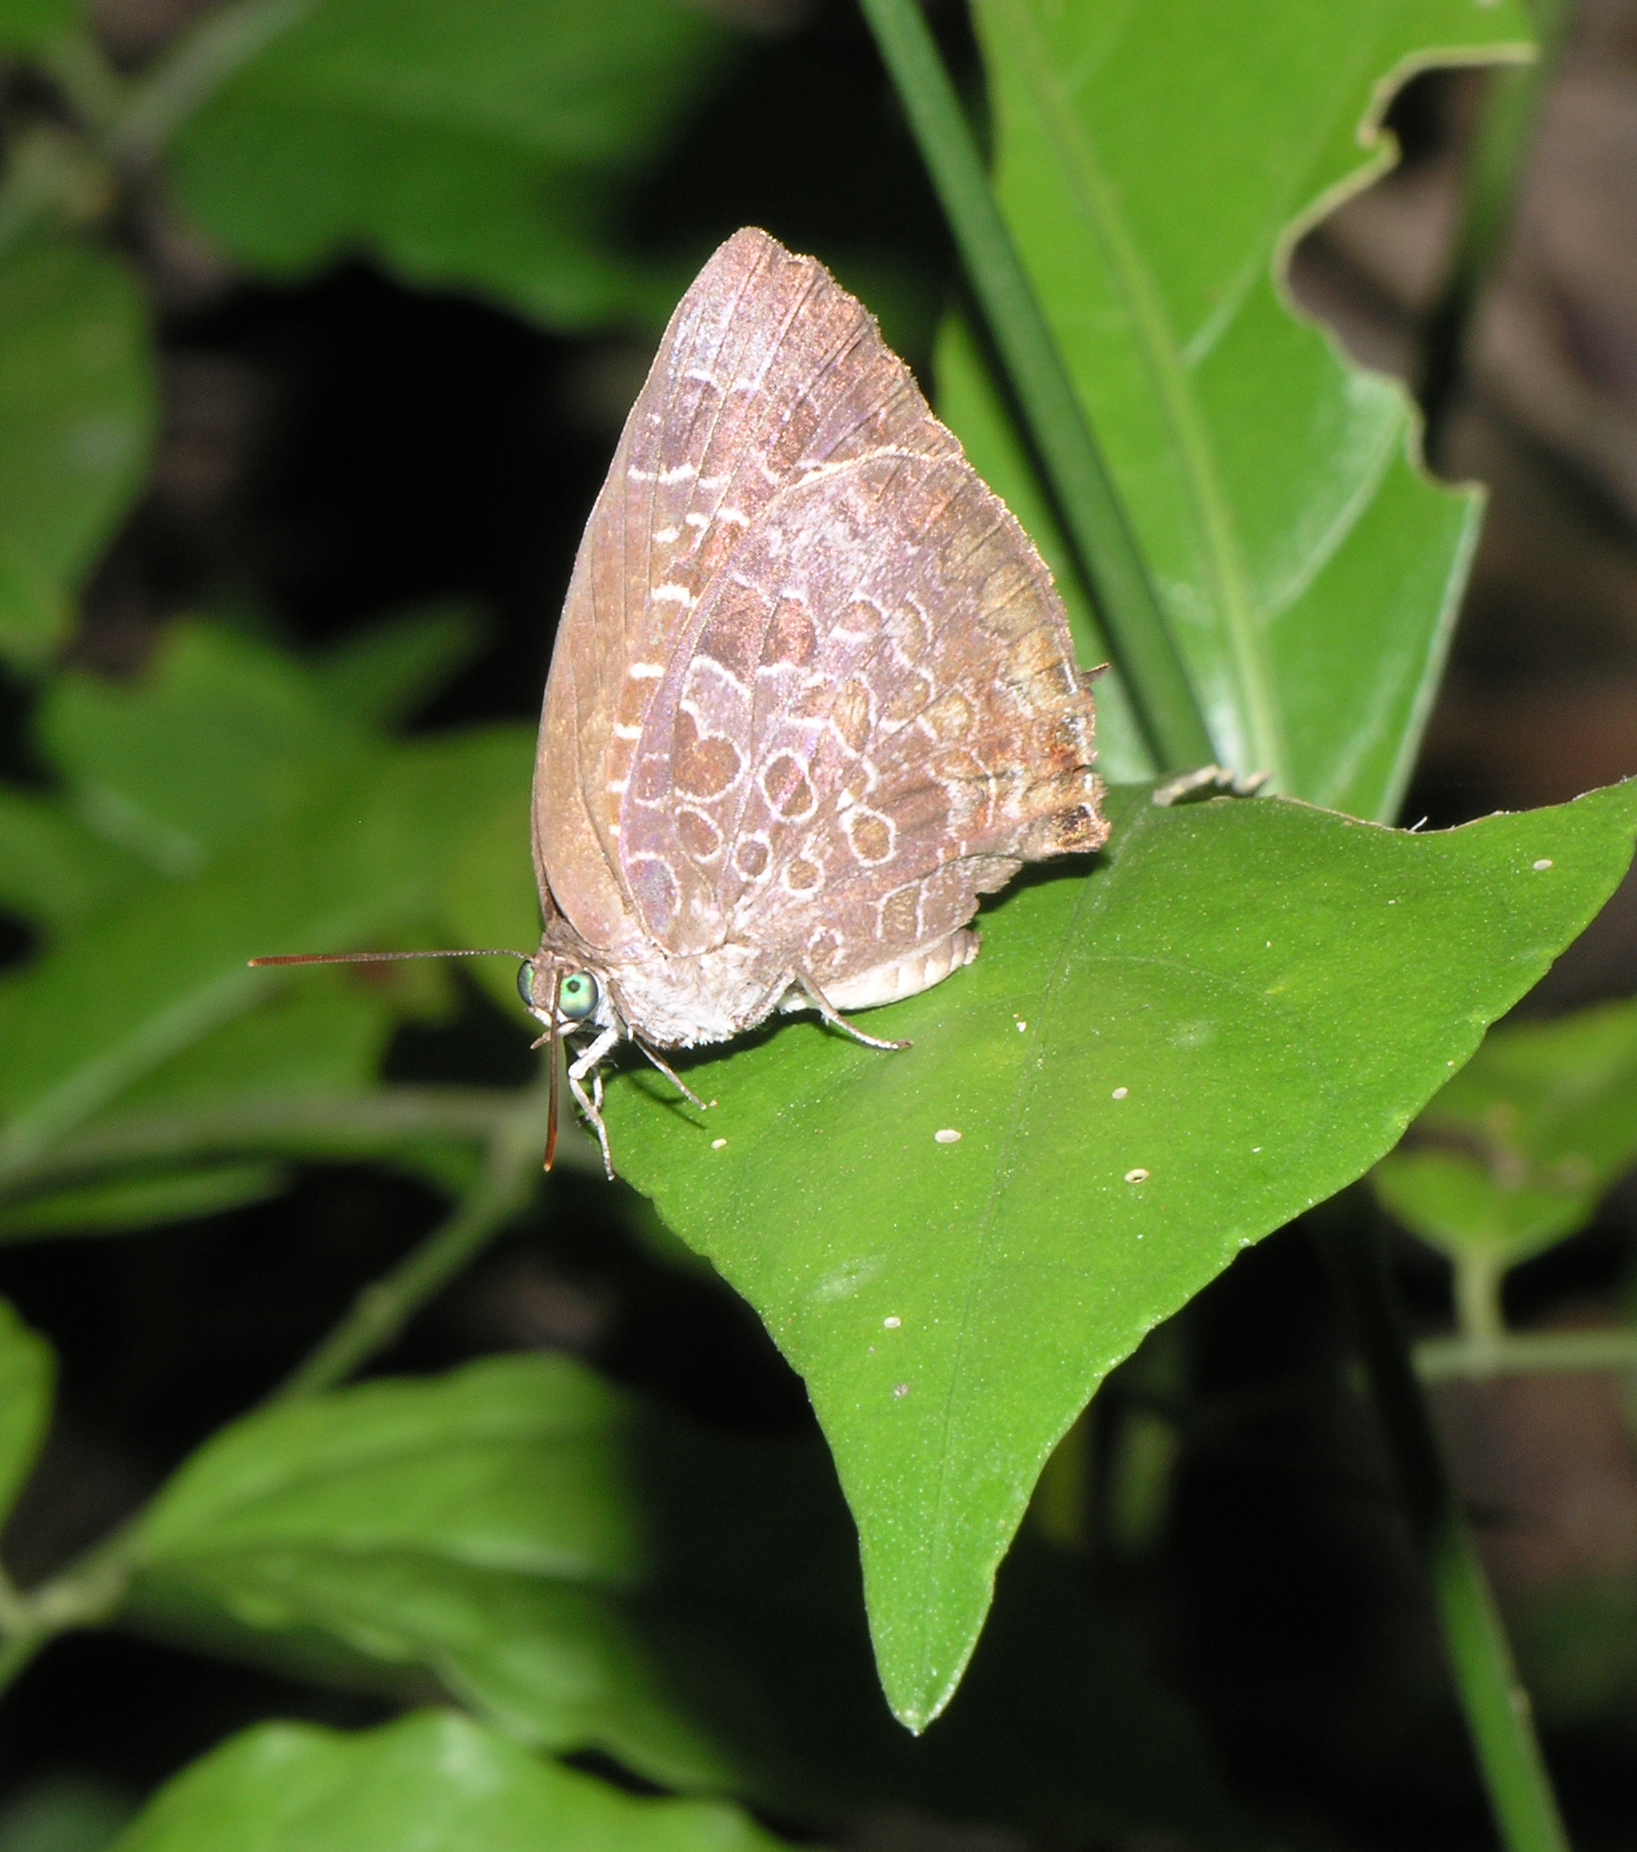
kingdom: Animalia
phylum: Arthropoda
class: Insecta
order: Lepidoptera
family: Lycaenidae
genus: Arhopala
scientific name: Arhopala bazaloides
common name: Tamil oakblue
